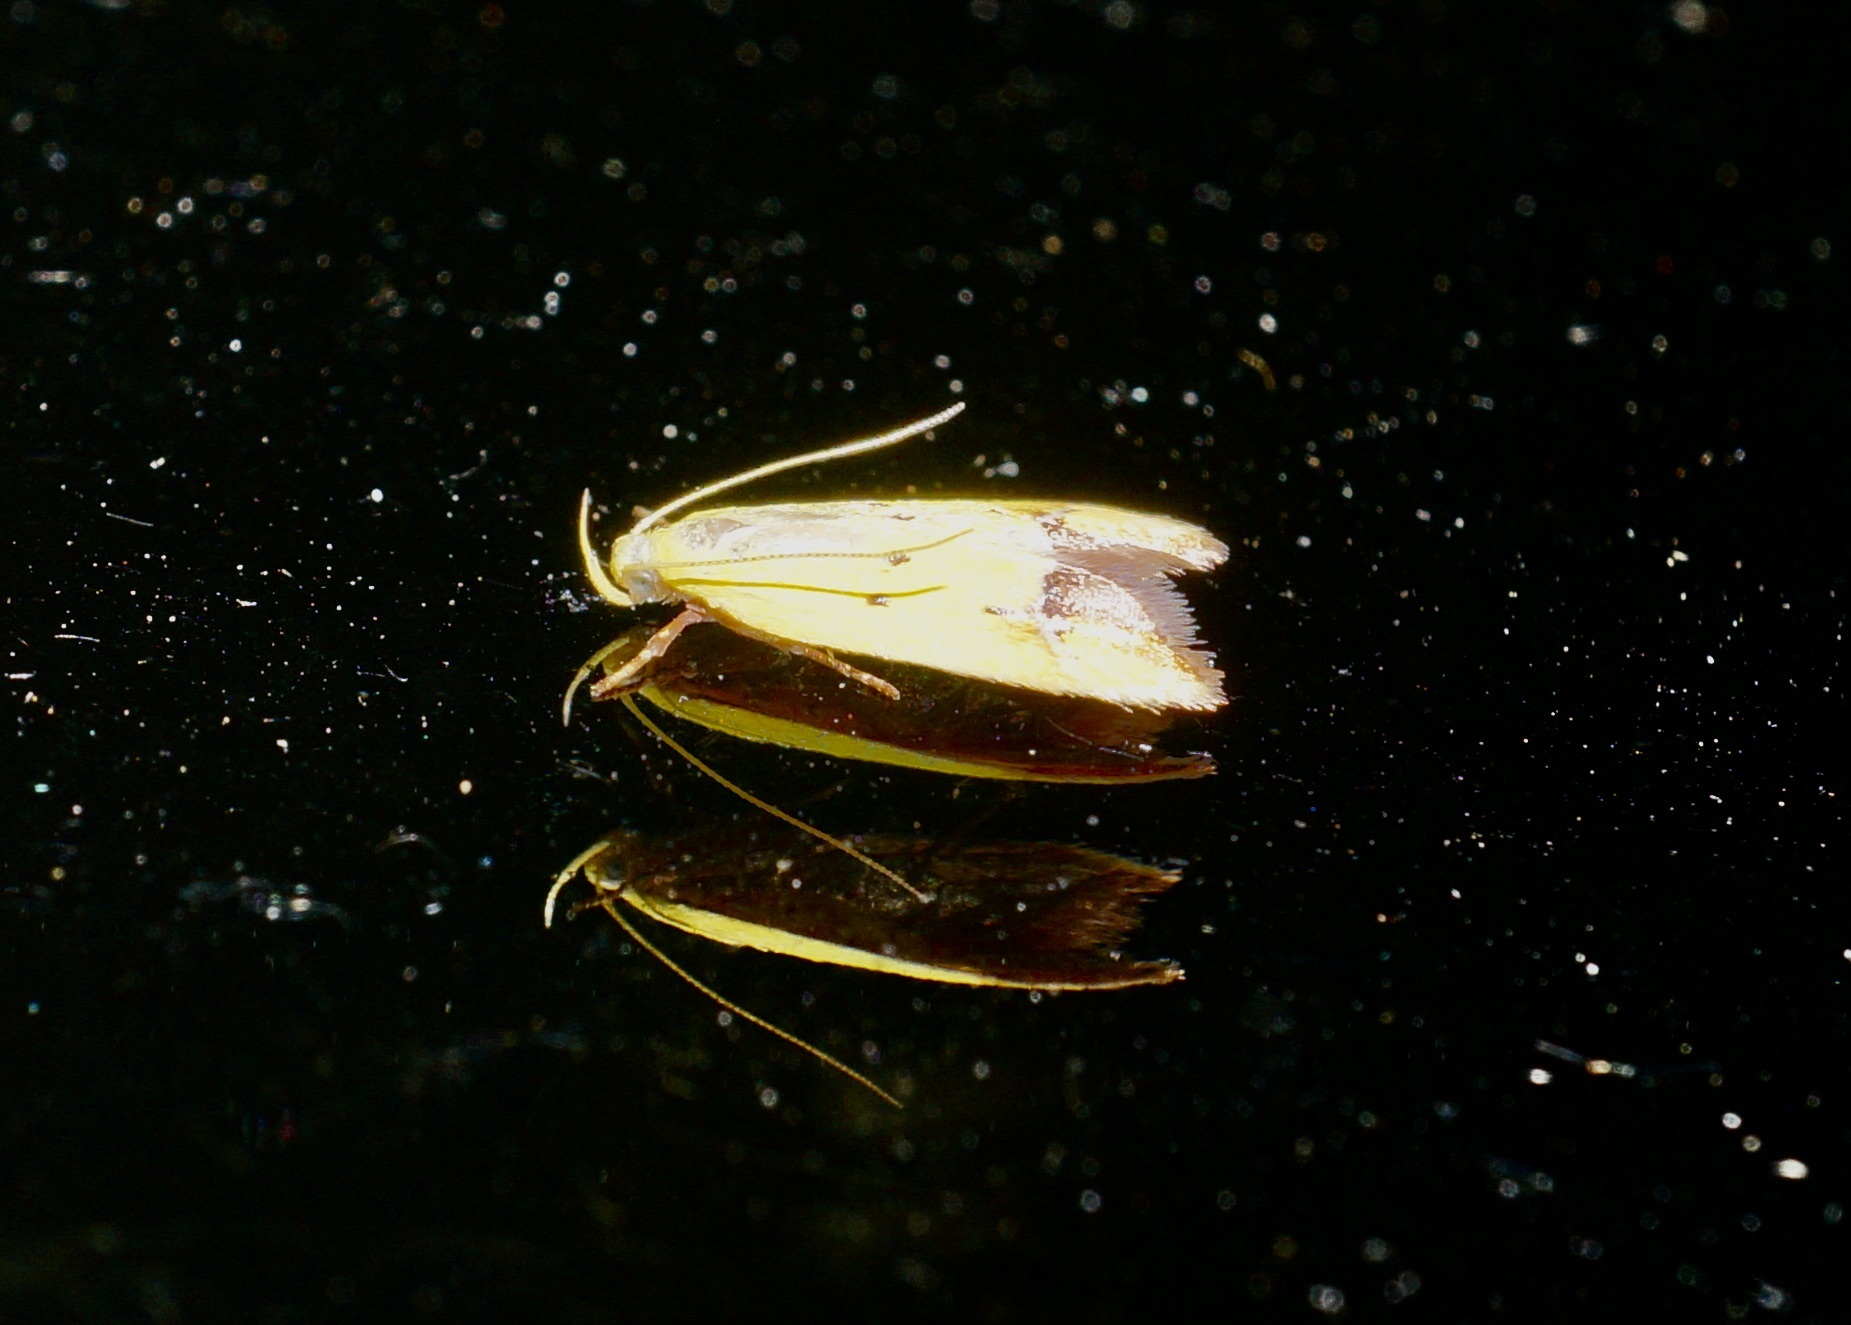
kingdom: Animalia
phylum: Arthropoda
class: Insecta
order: Lepidoptera
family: Oecophoridae
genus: Gymnobathra
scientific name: Gymnobathra flavidella
